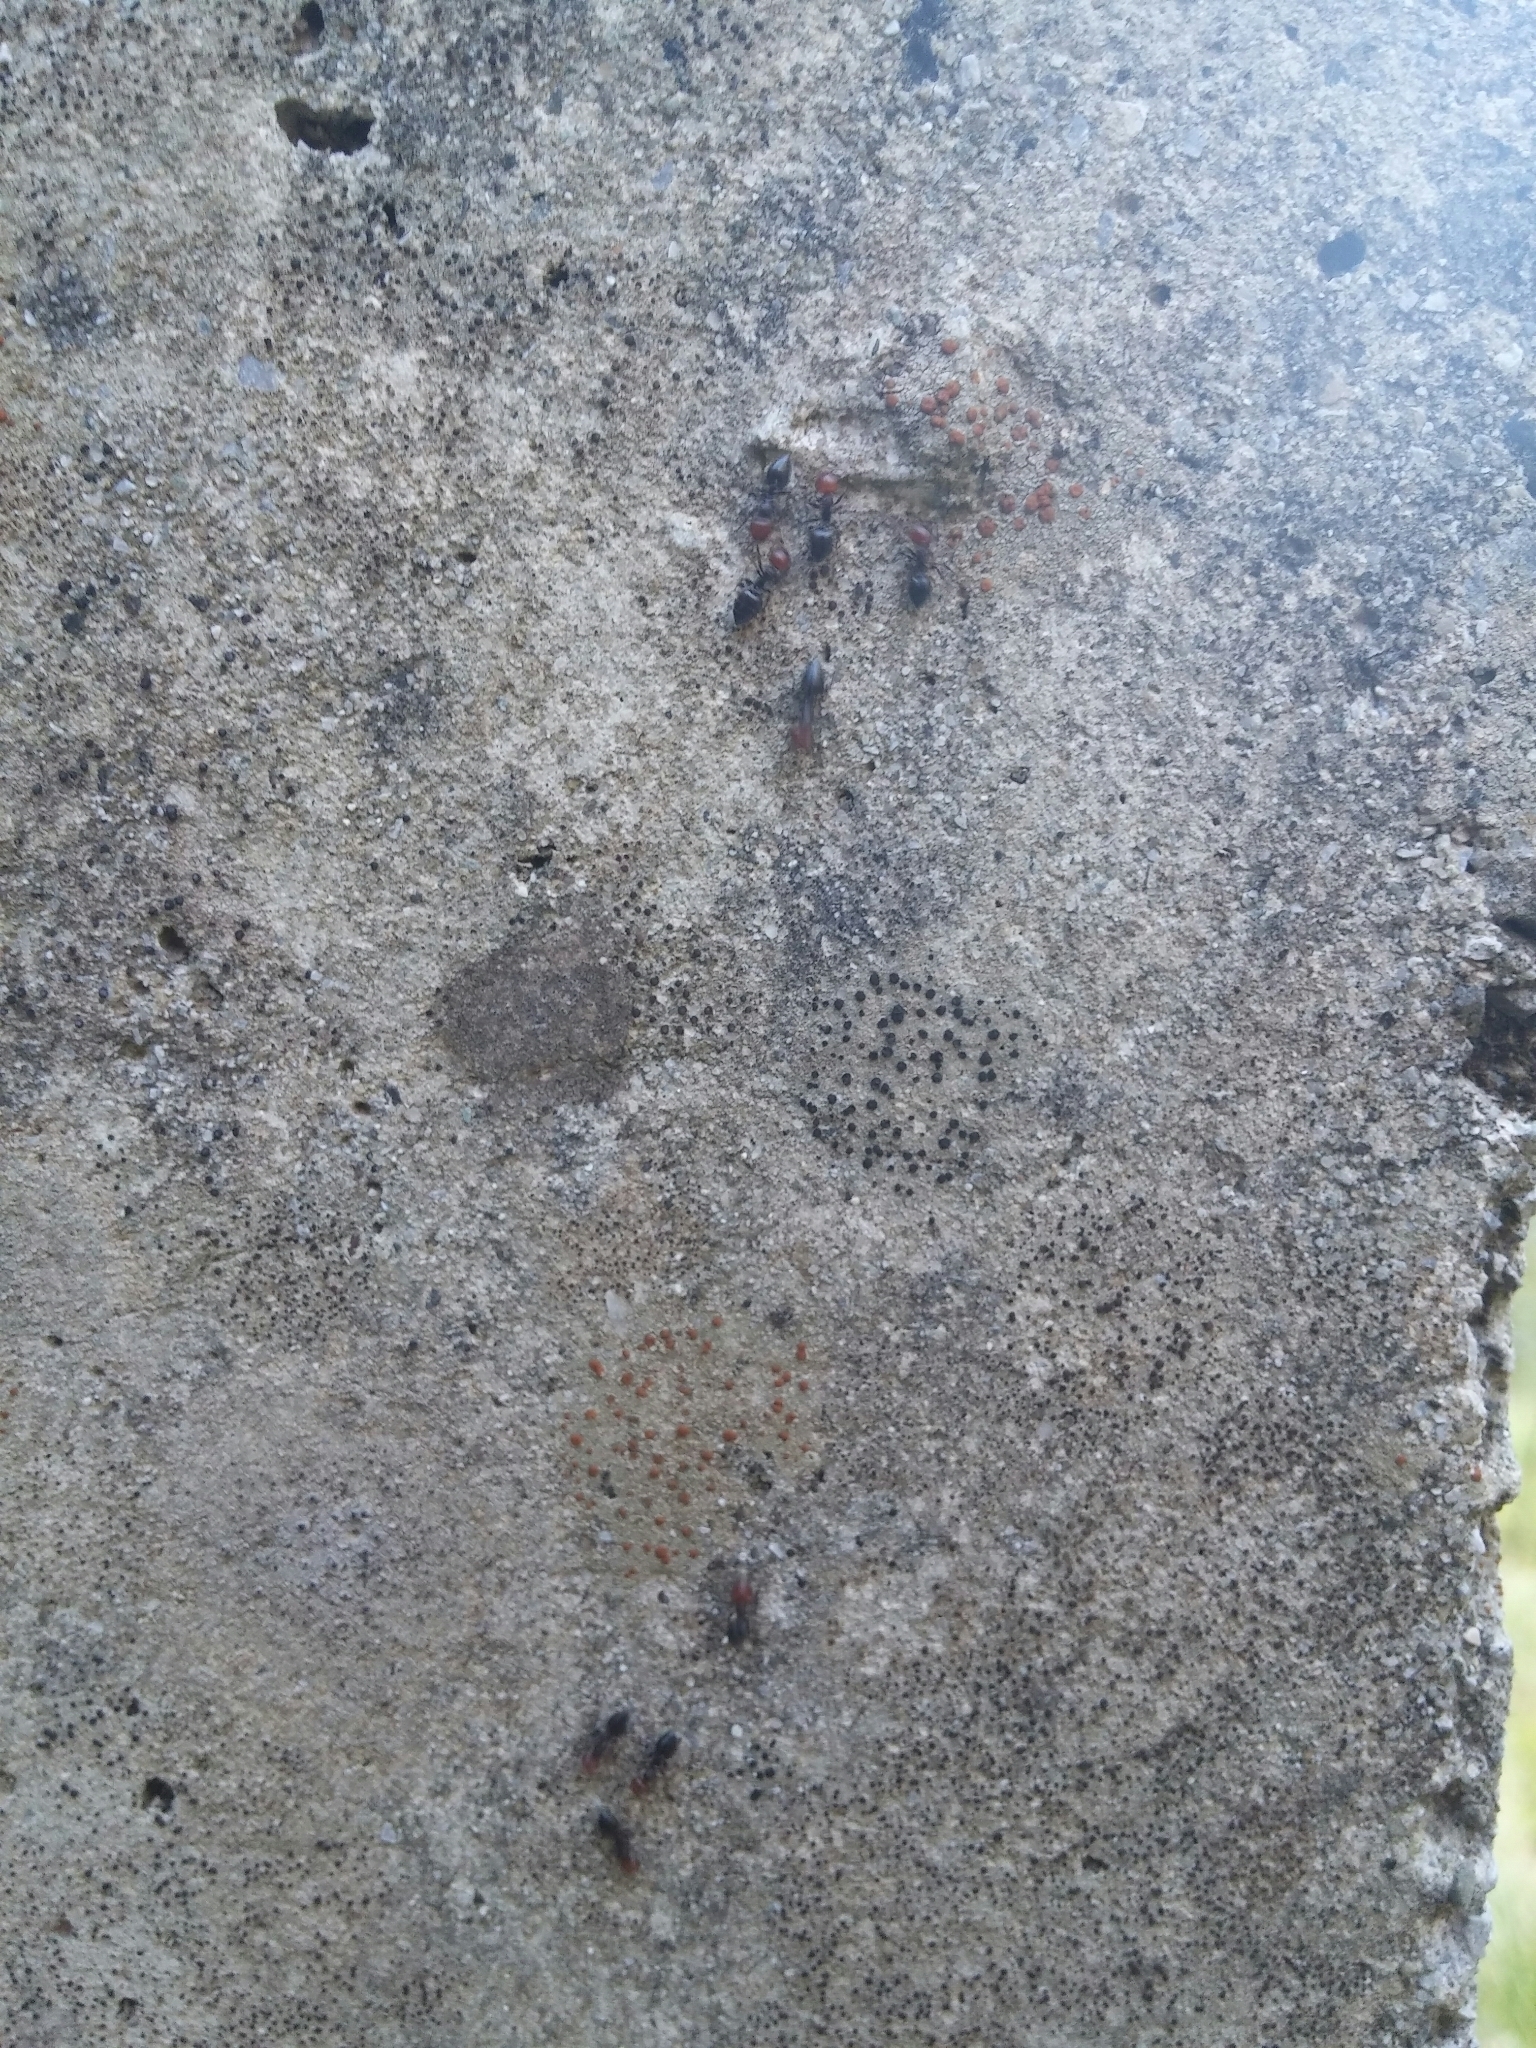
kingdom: Animalia
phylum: Arthropoda
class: Insecta
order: Hymenoptera
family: Formicidae
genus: Crematogaster
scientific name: Crematogaster scutellaris
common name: Fourmi du liège
